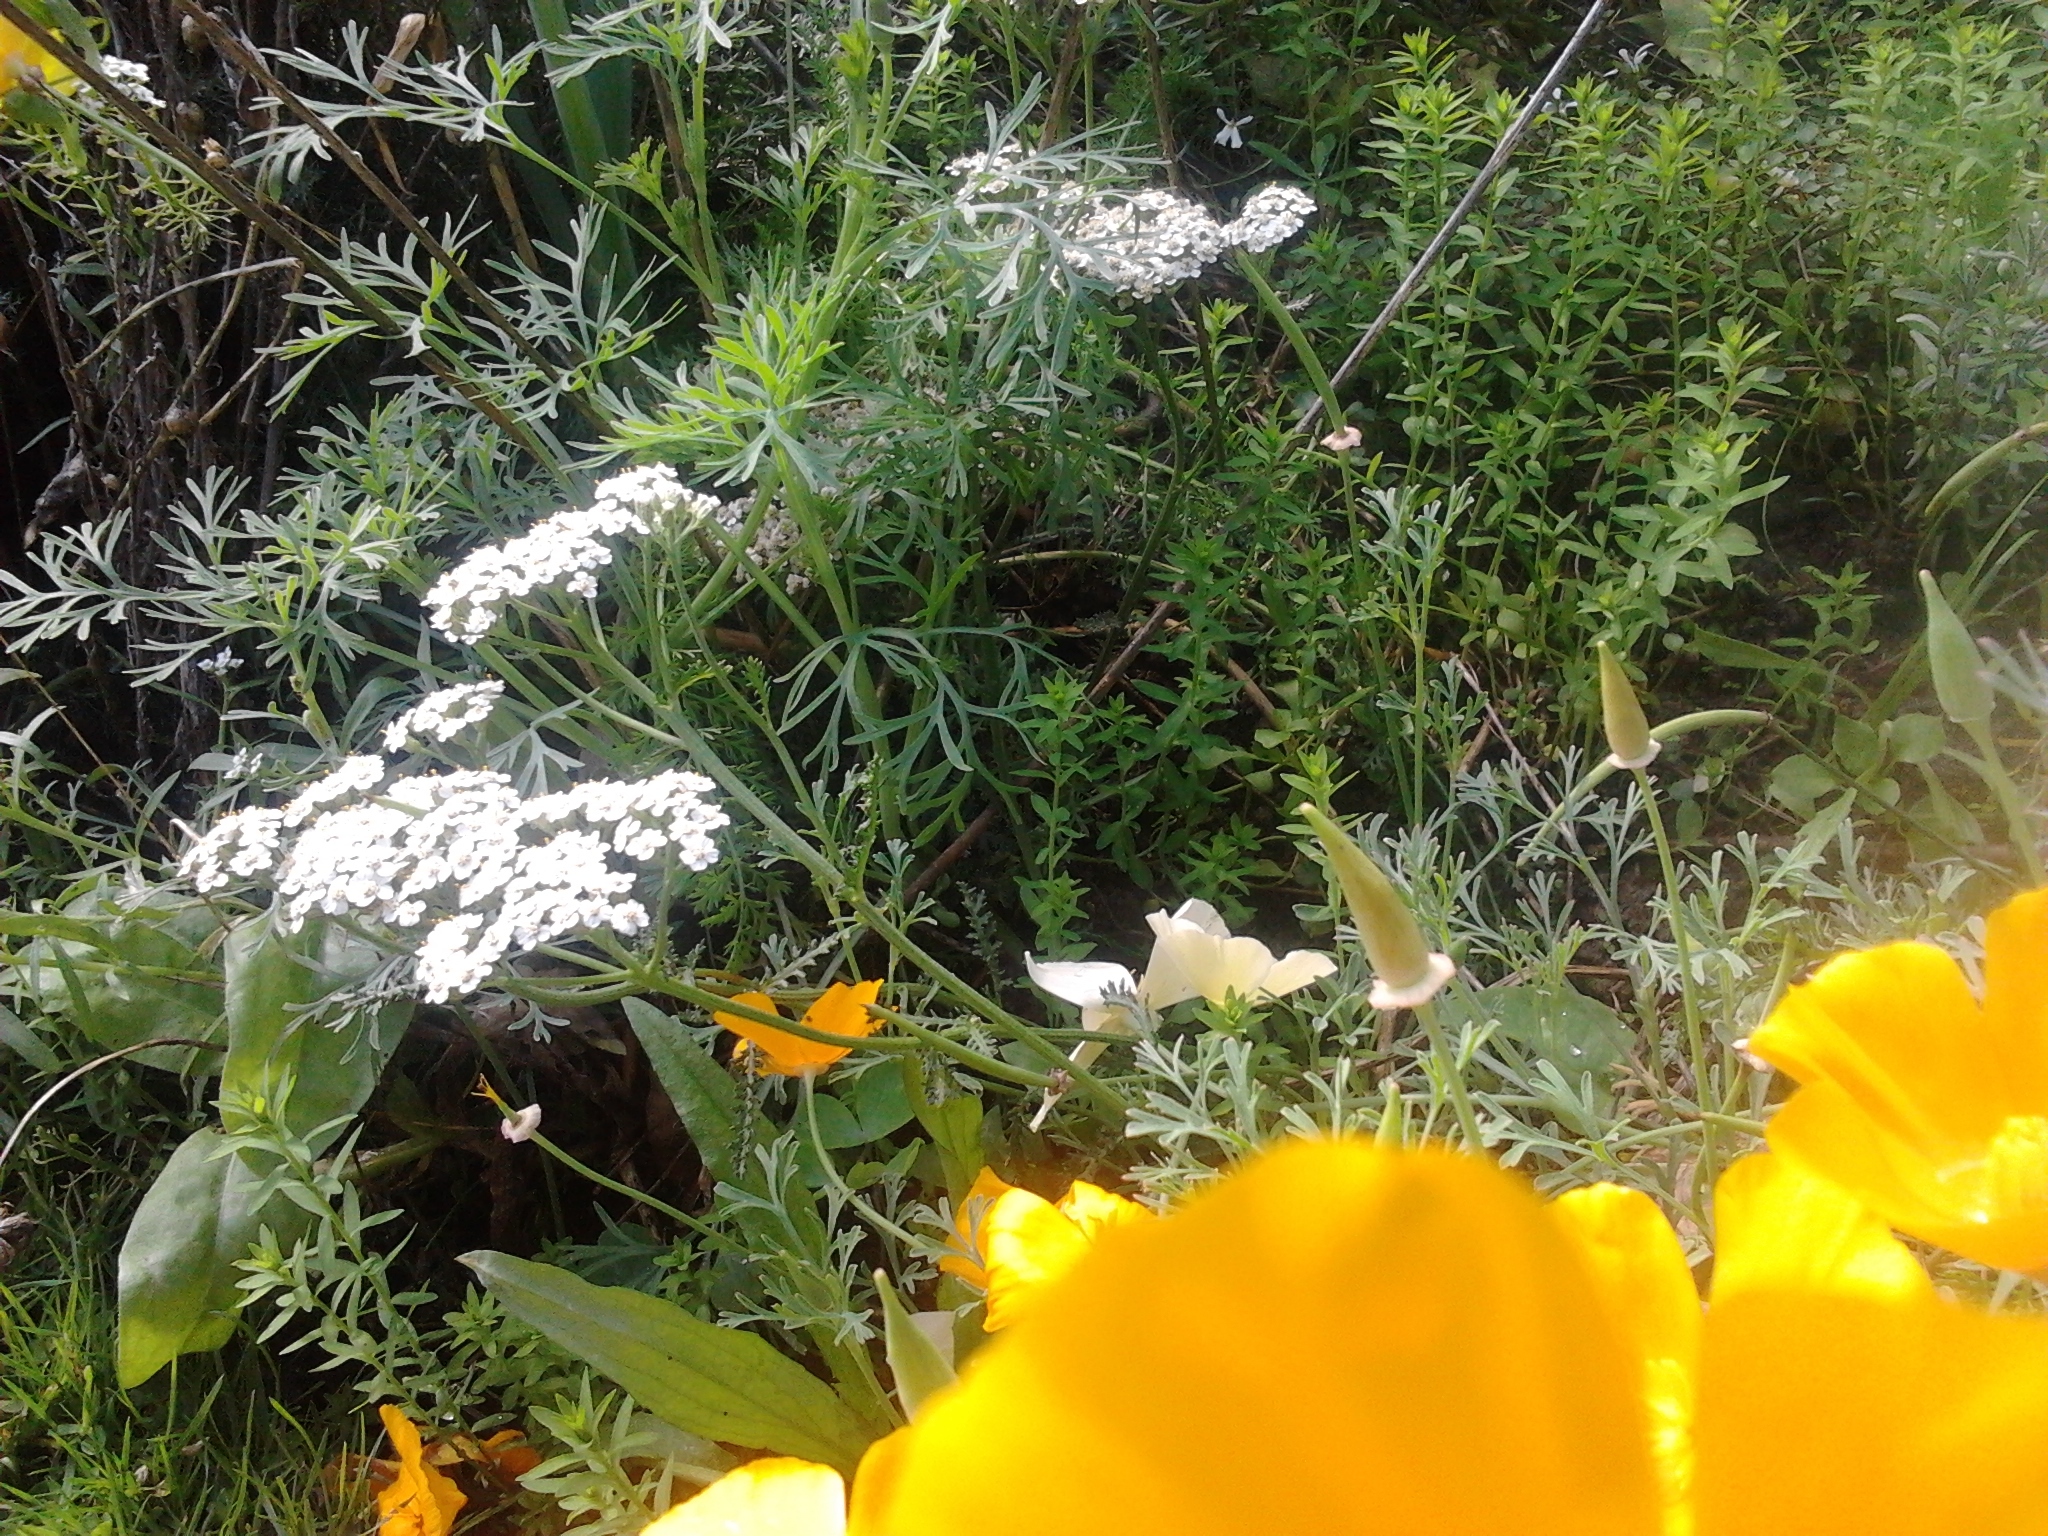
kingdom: Plantae
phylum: Tracheophyta
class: Magnoliopsida
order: Asterales
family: Asteraceae
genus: Achillea
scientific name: Achillea millefolium
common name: Yarrow
